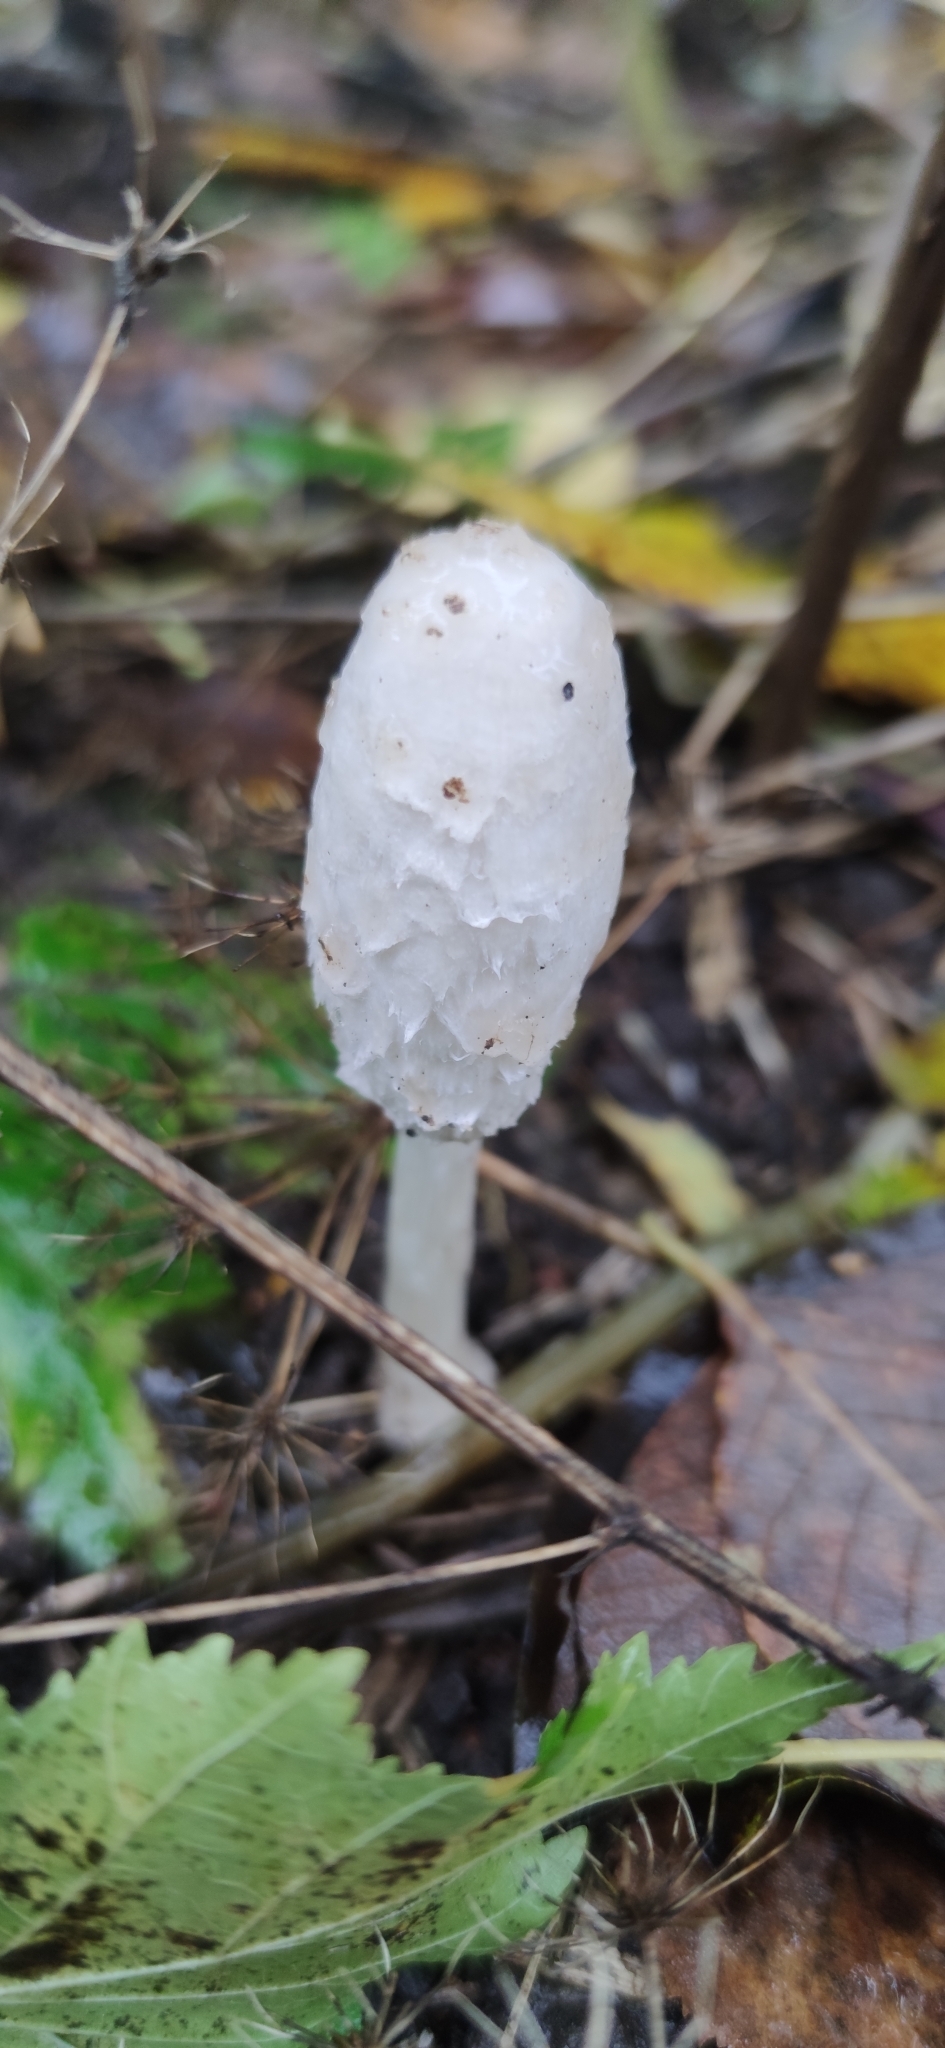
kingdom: Fungi
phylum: Basidiomycota
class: Agaricomycetes
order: Agaricales
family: Agaricaceae
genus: Coprinus
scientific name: Coprinus comatus
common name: Lawyer's wig
